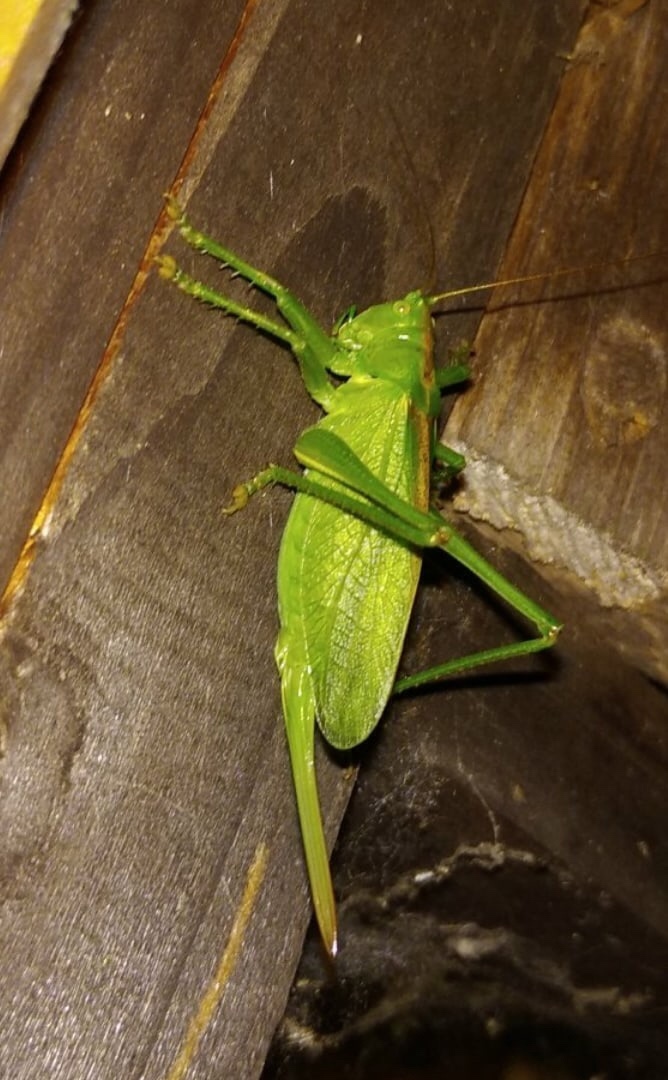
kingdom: Animalia
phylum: Arthropoda
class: Insecta
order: Orthoptera
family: Tettigoniidae
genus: Tettigonia
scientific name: Tettigonia cantans
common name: Upland green bush-cricket
